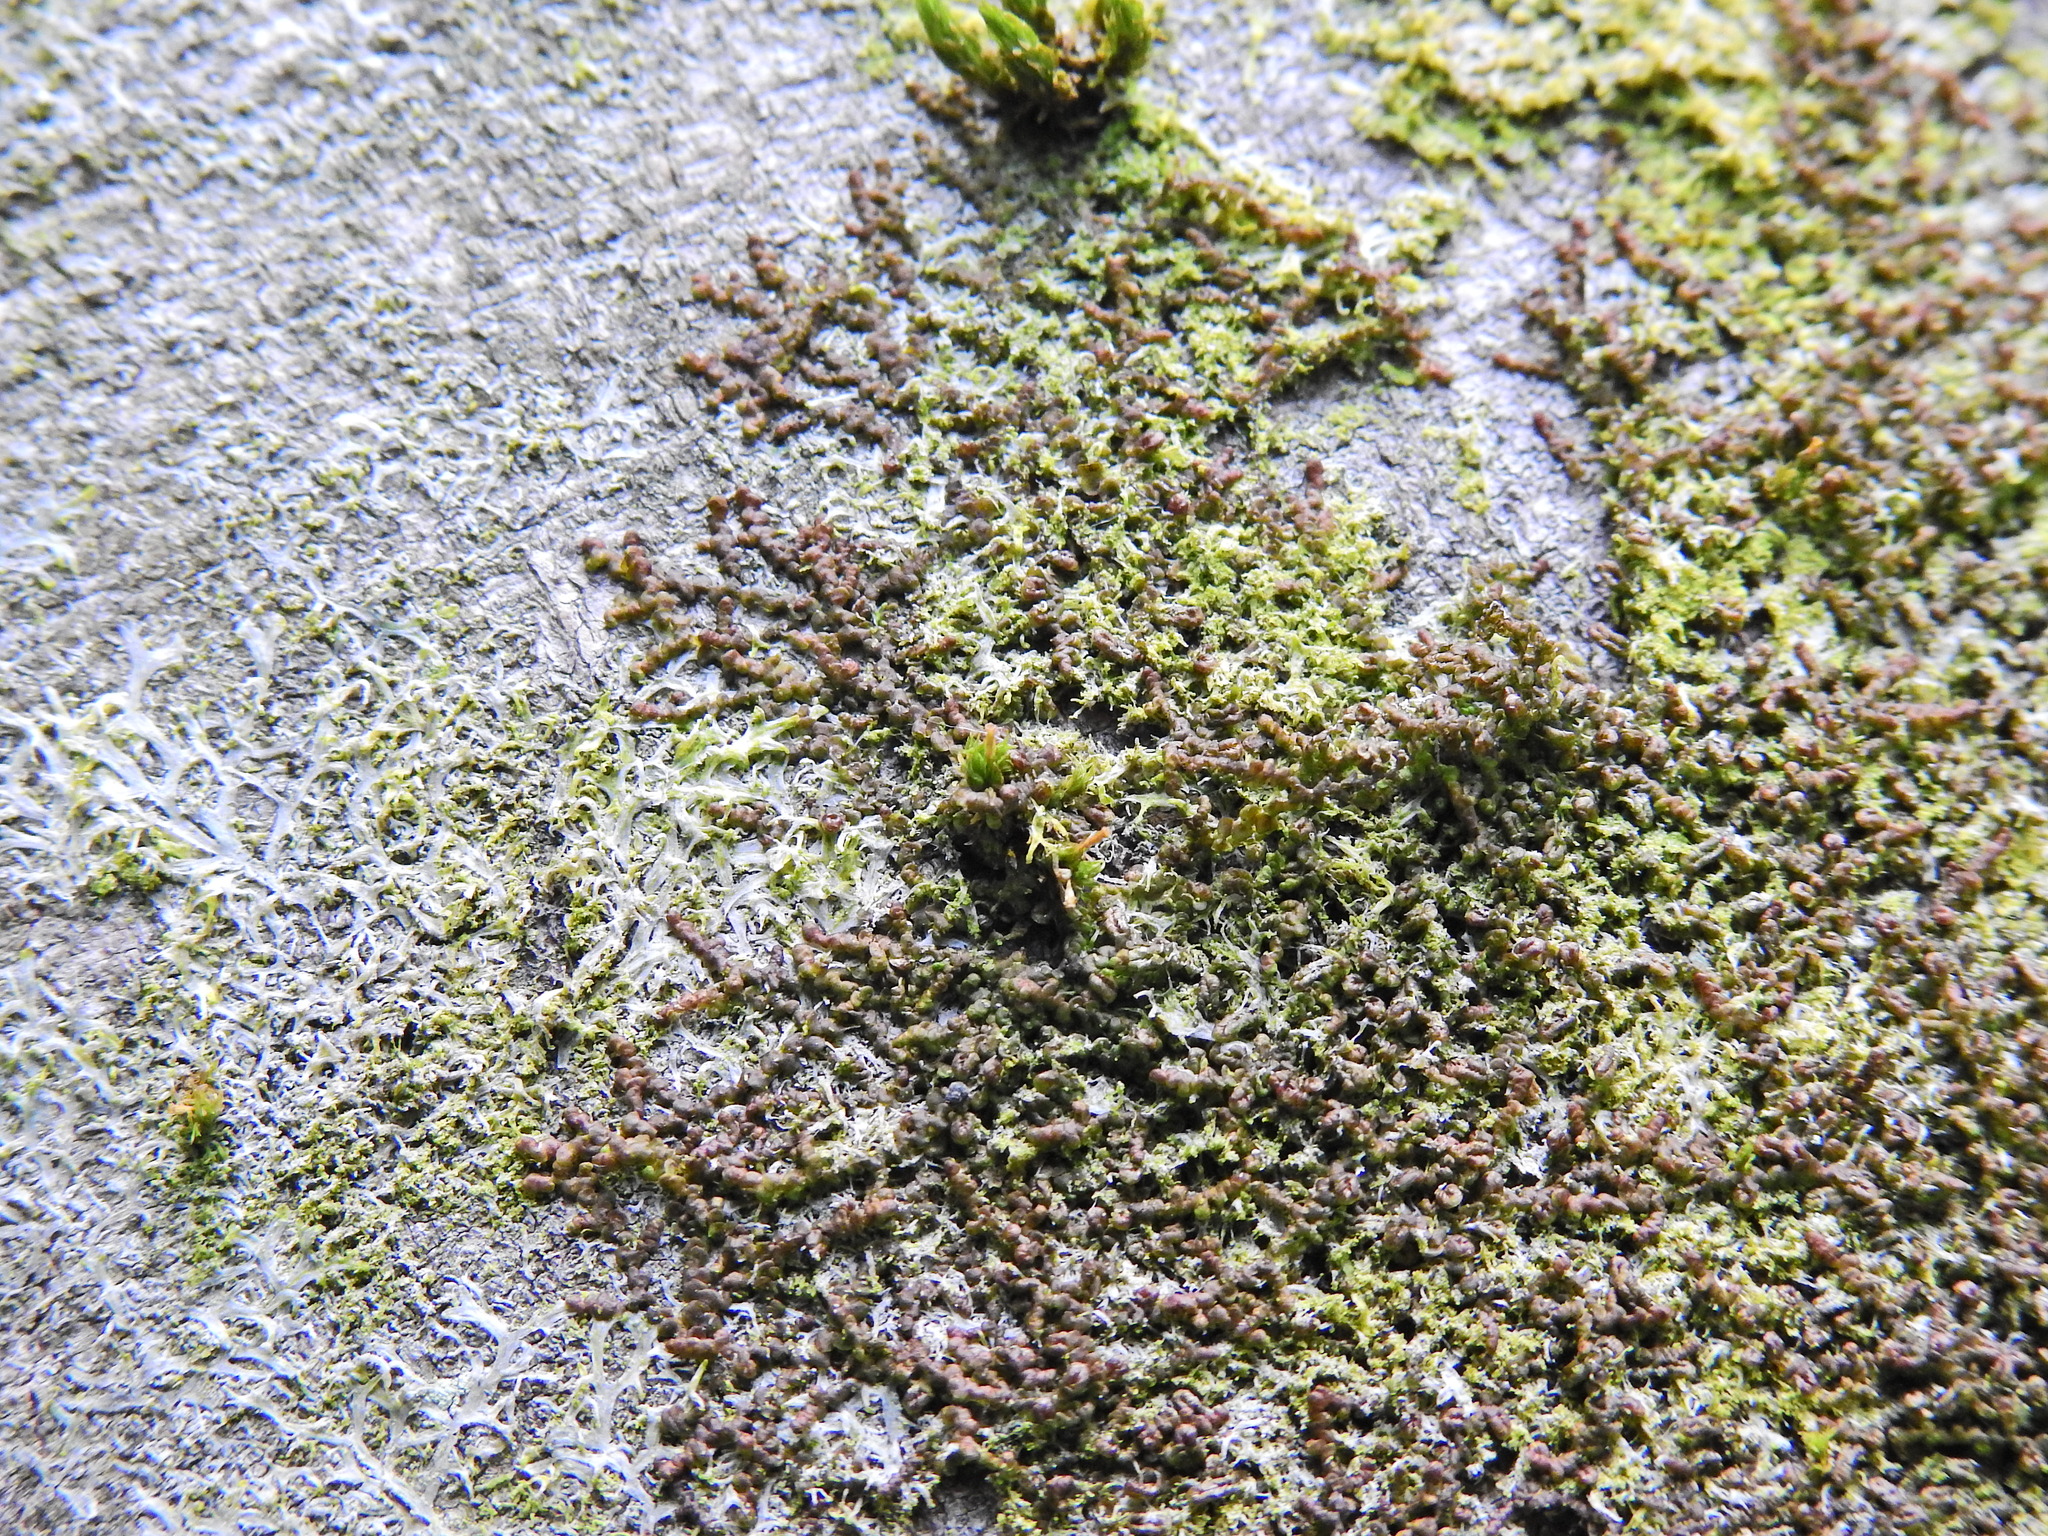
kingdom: Plantae
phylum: Marchantiophyta
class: Jungermanniopsida
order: Porellales
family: Frullaniaceae
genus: Frullania
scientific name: Frullania dilatata
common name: Dilated scalewort
